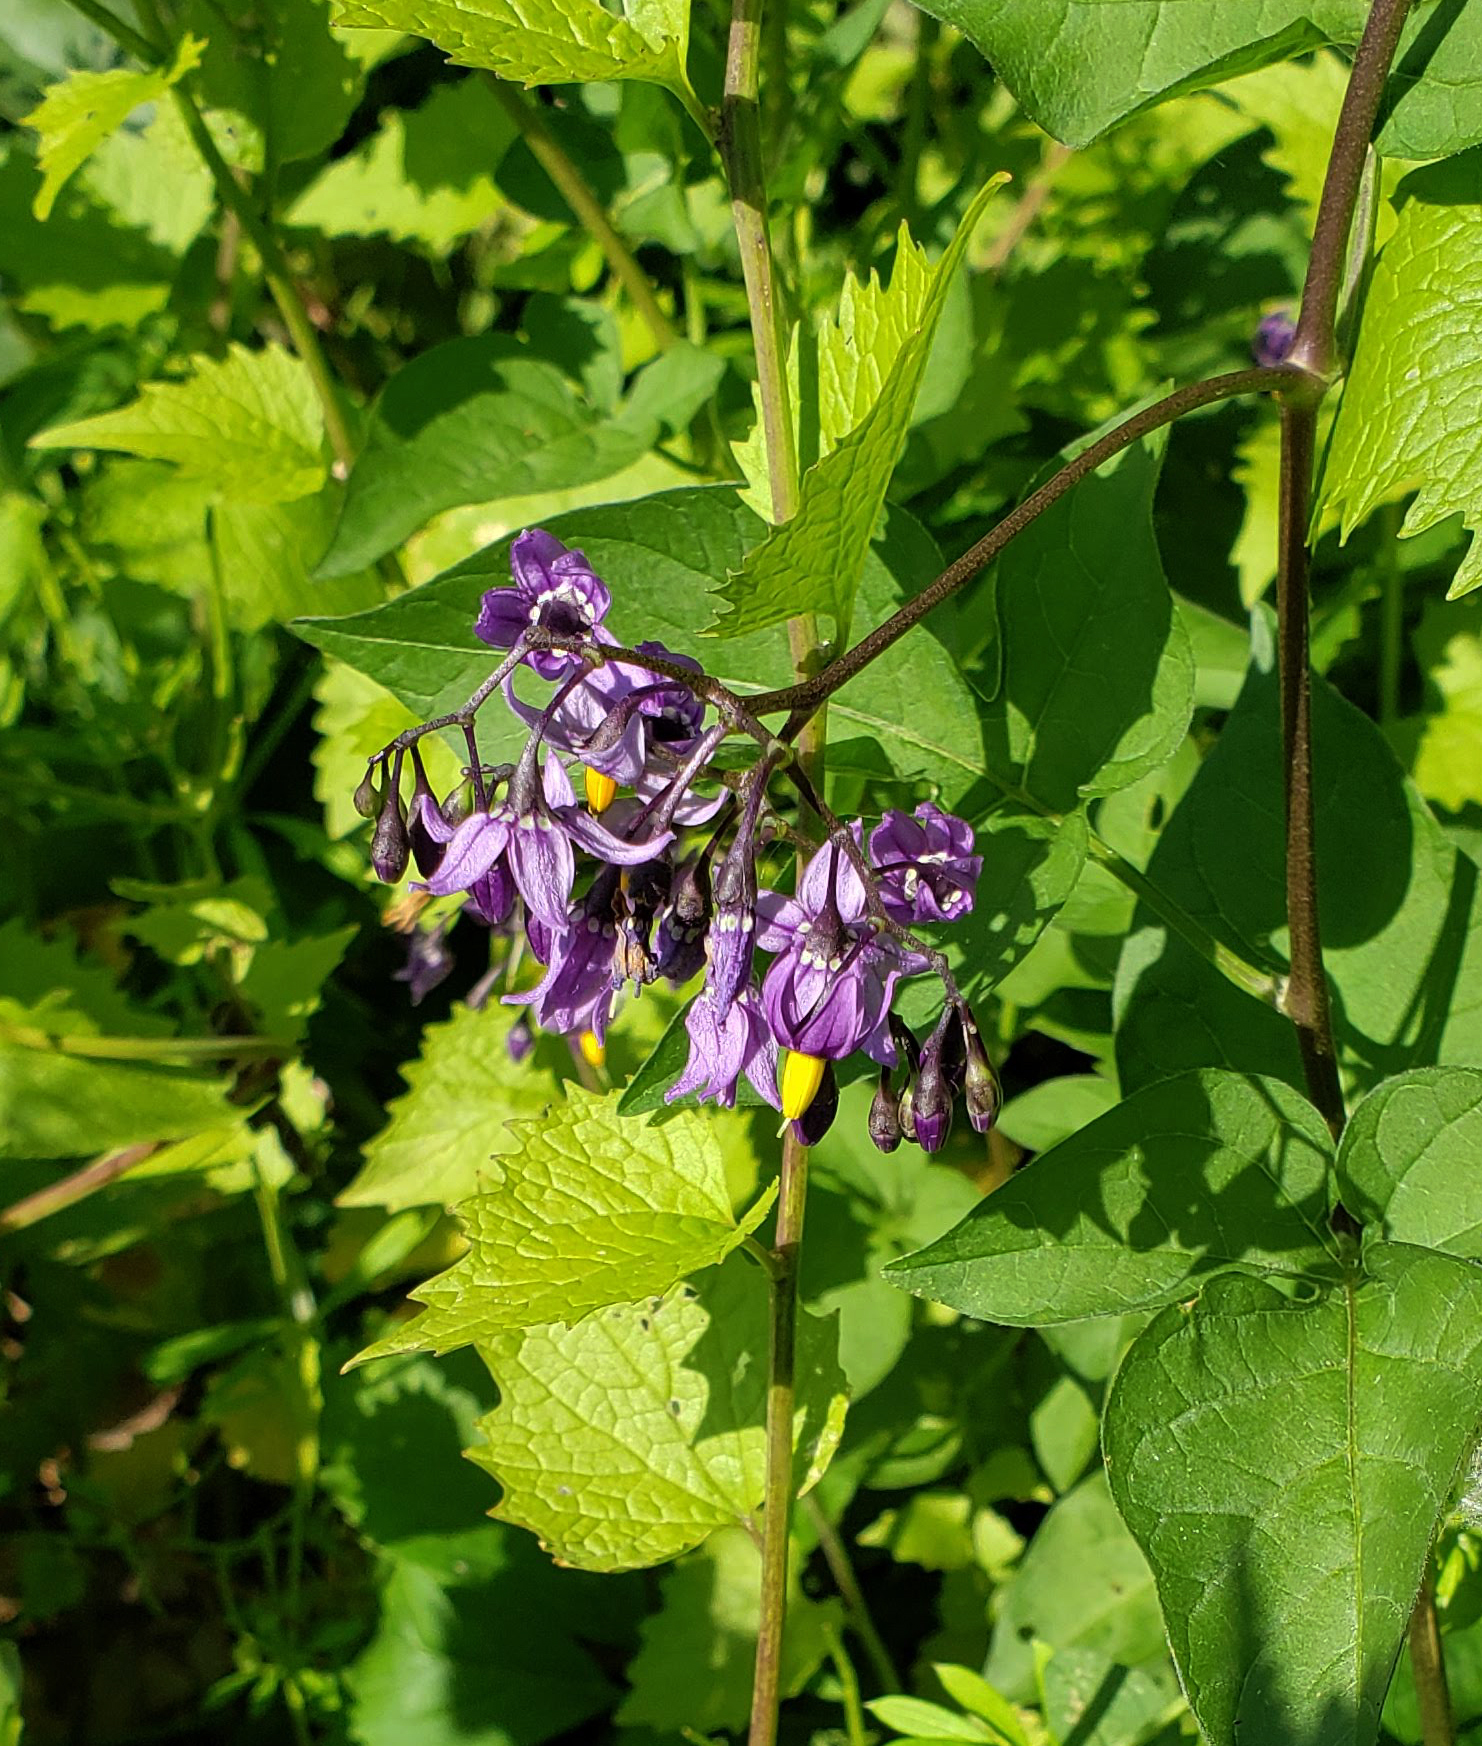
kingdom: Plantae
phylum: Tracheophyta
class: Magnoliopsida
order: Solanales
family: Solanaceae
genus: Solanum
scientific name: Solanum dulcamara
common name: Climbing nightshade
